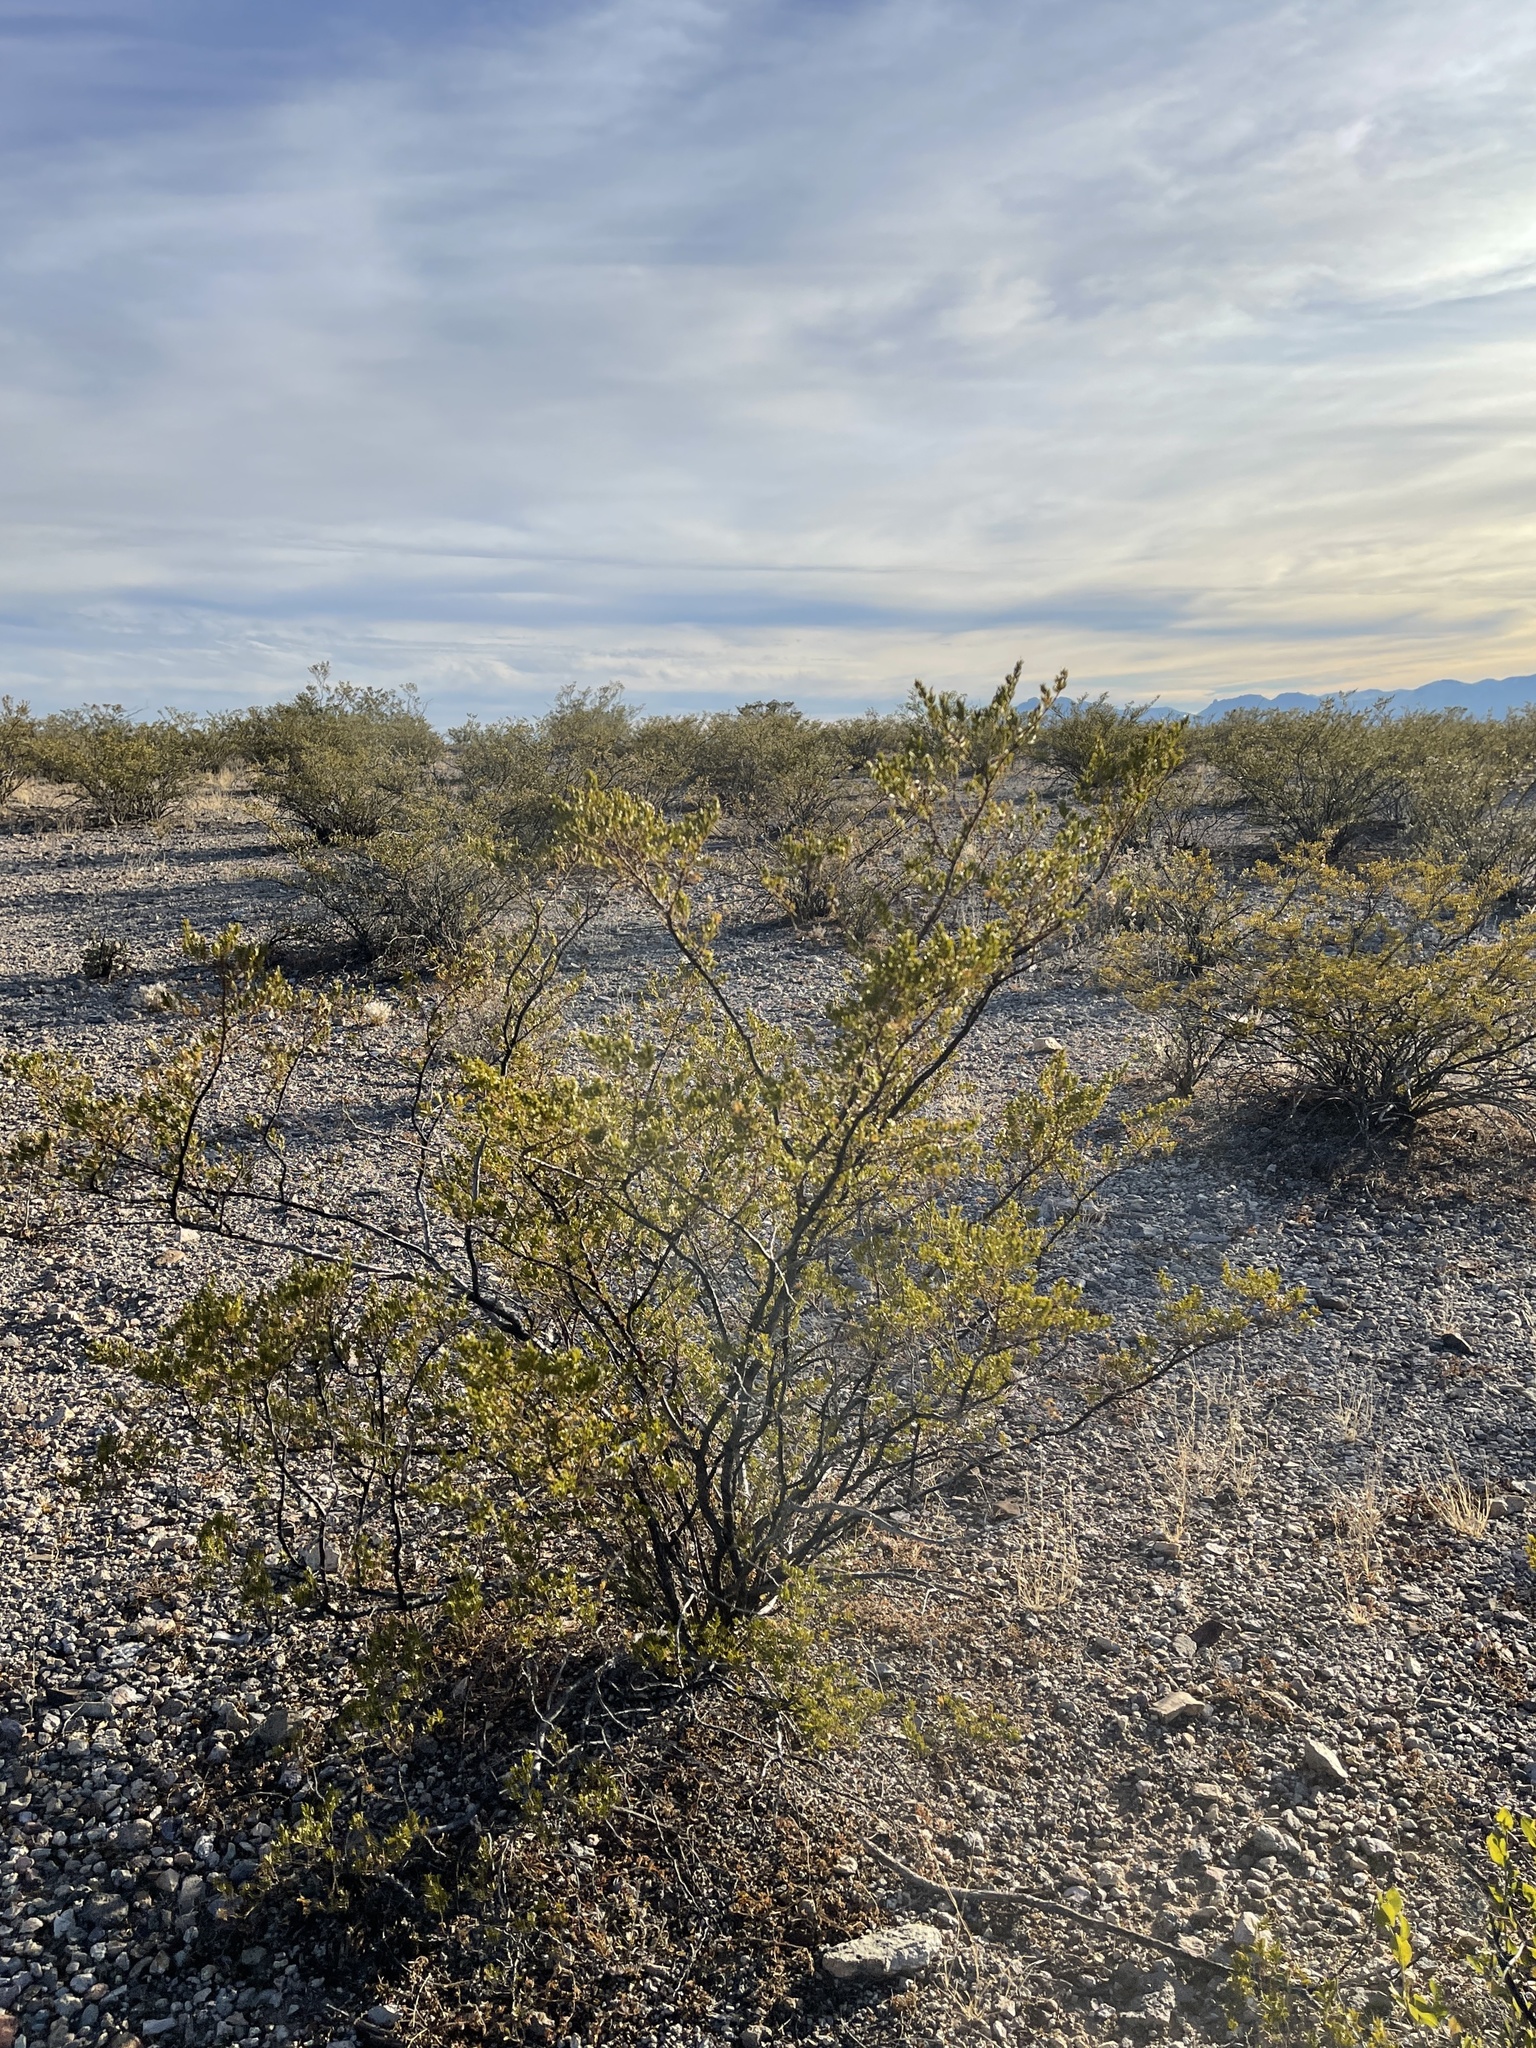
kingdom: Plantae
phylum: Tracheophyta
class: Magnoliopsida
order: Zygophyllales
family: Zygophyllaceae
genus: Larrea
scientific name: Larrea tridentata
